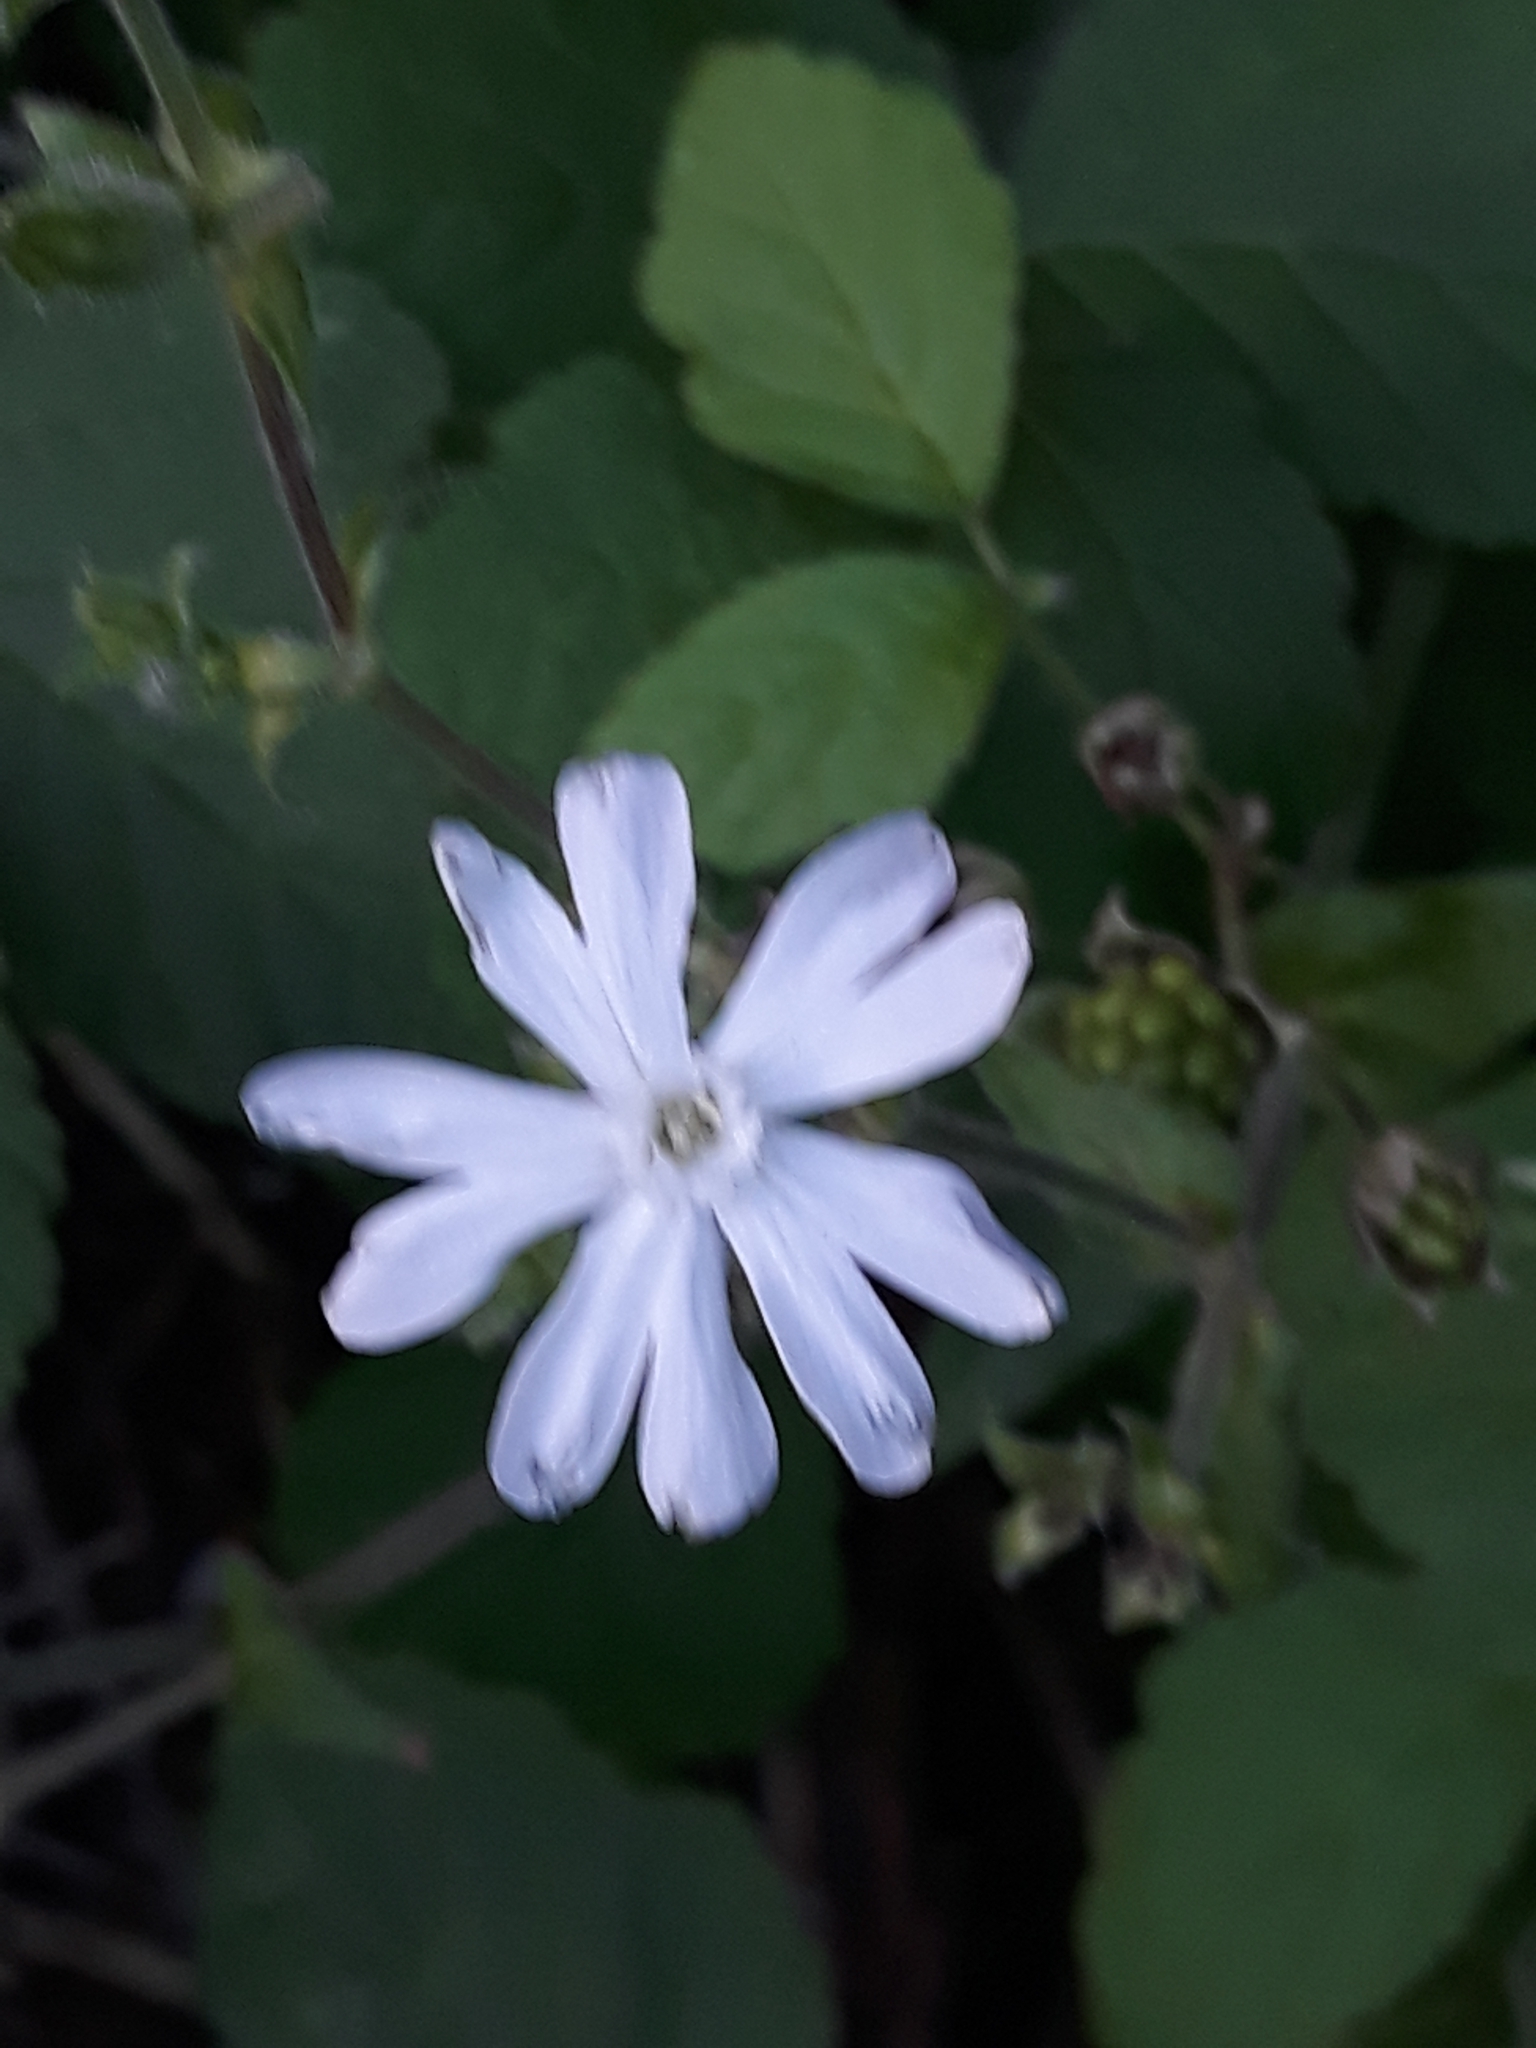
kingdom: Plantae
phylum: Tracheophyta
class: Magnoliopsida
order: Caryophyllales
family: Caryophyllaceae
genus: Silene
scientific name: Silene latifolia
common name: White campion
